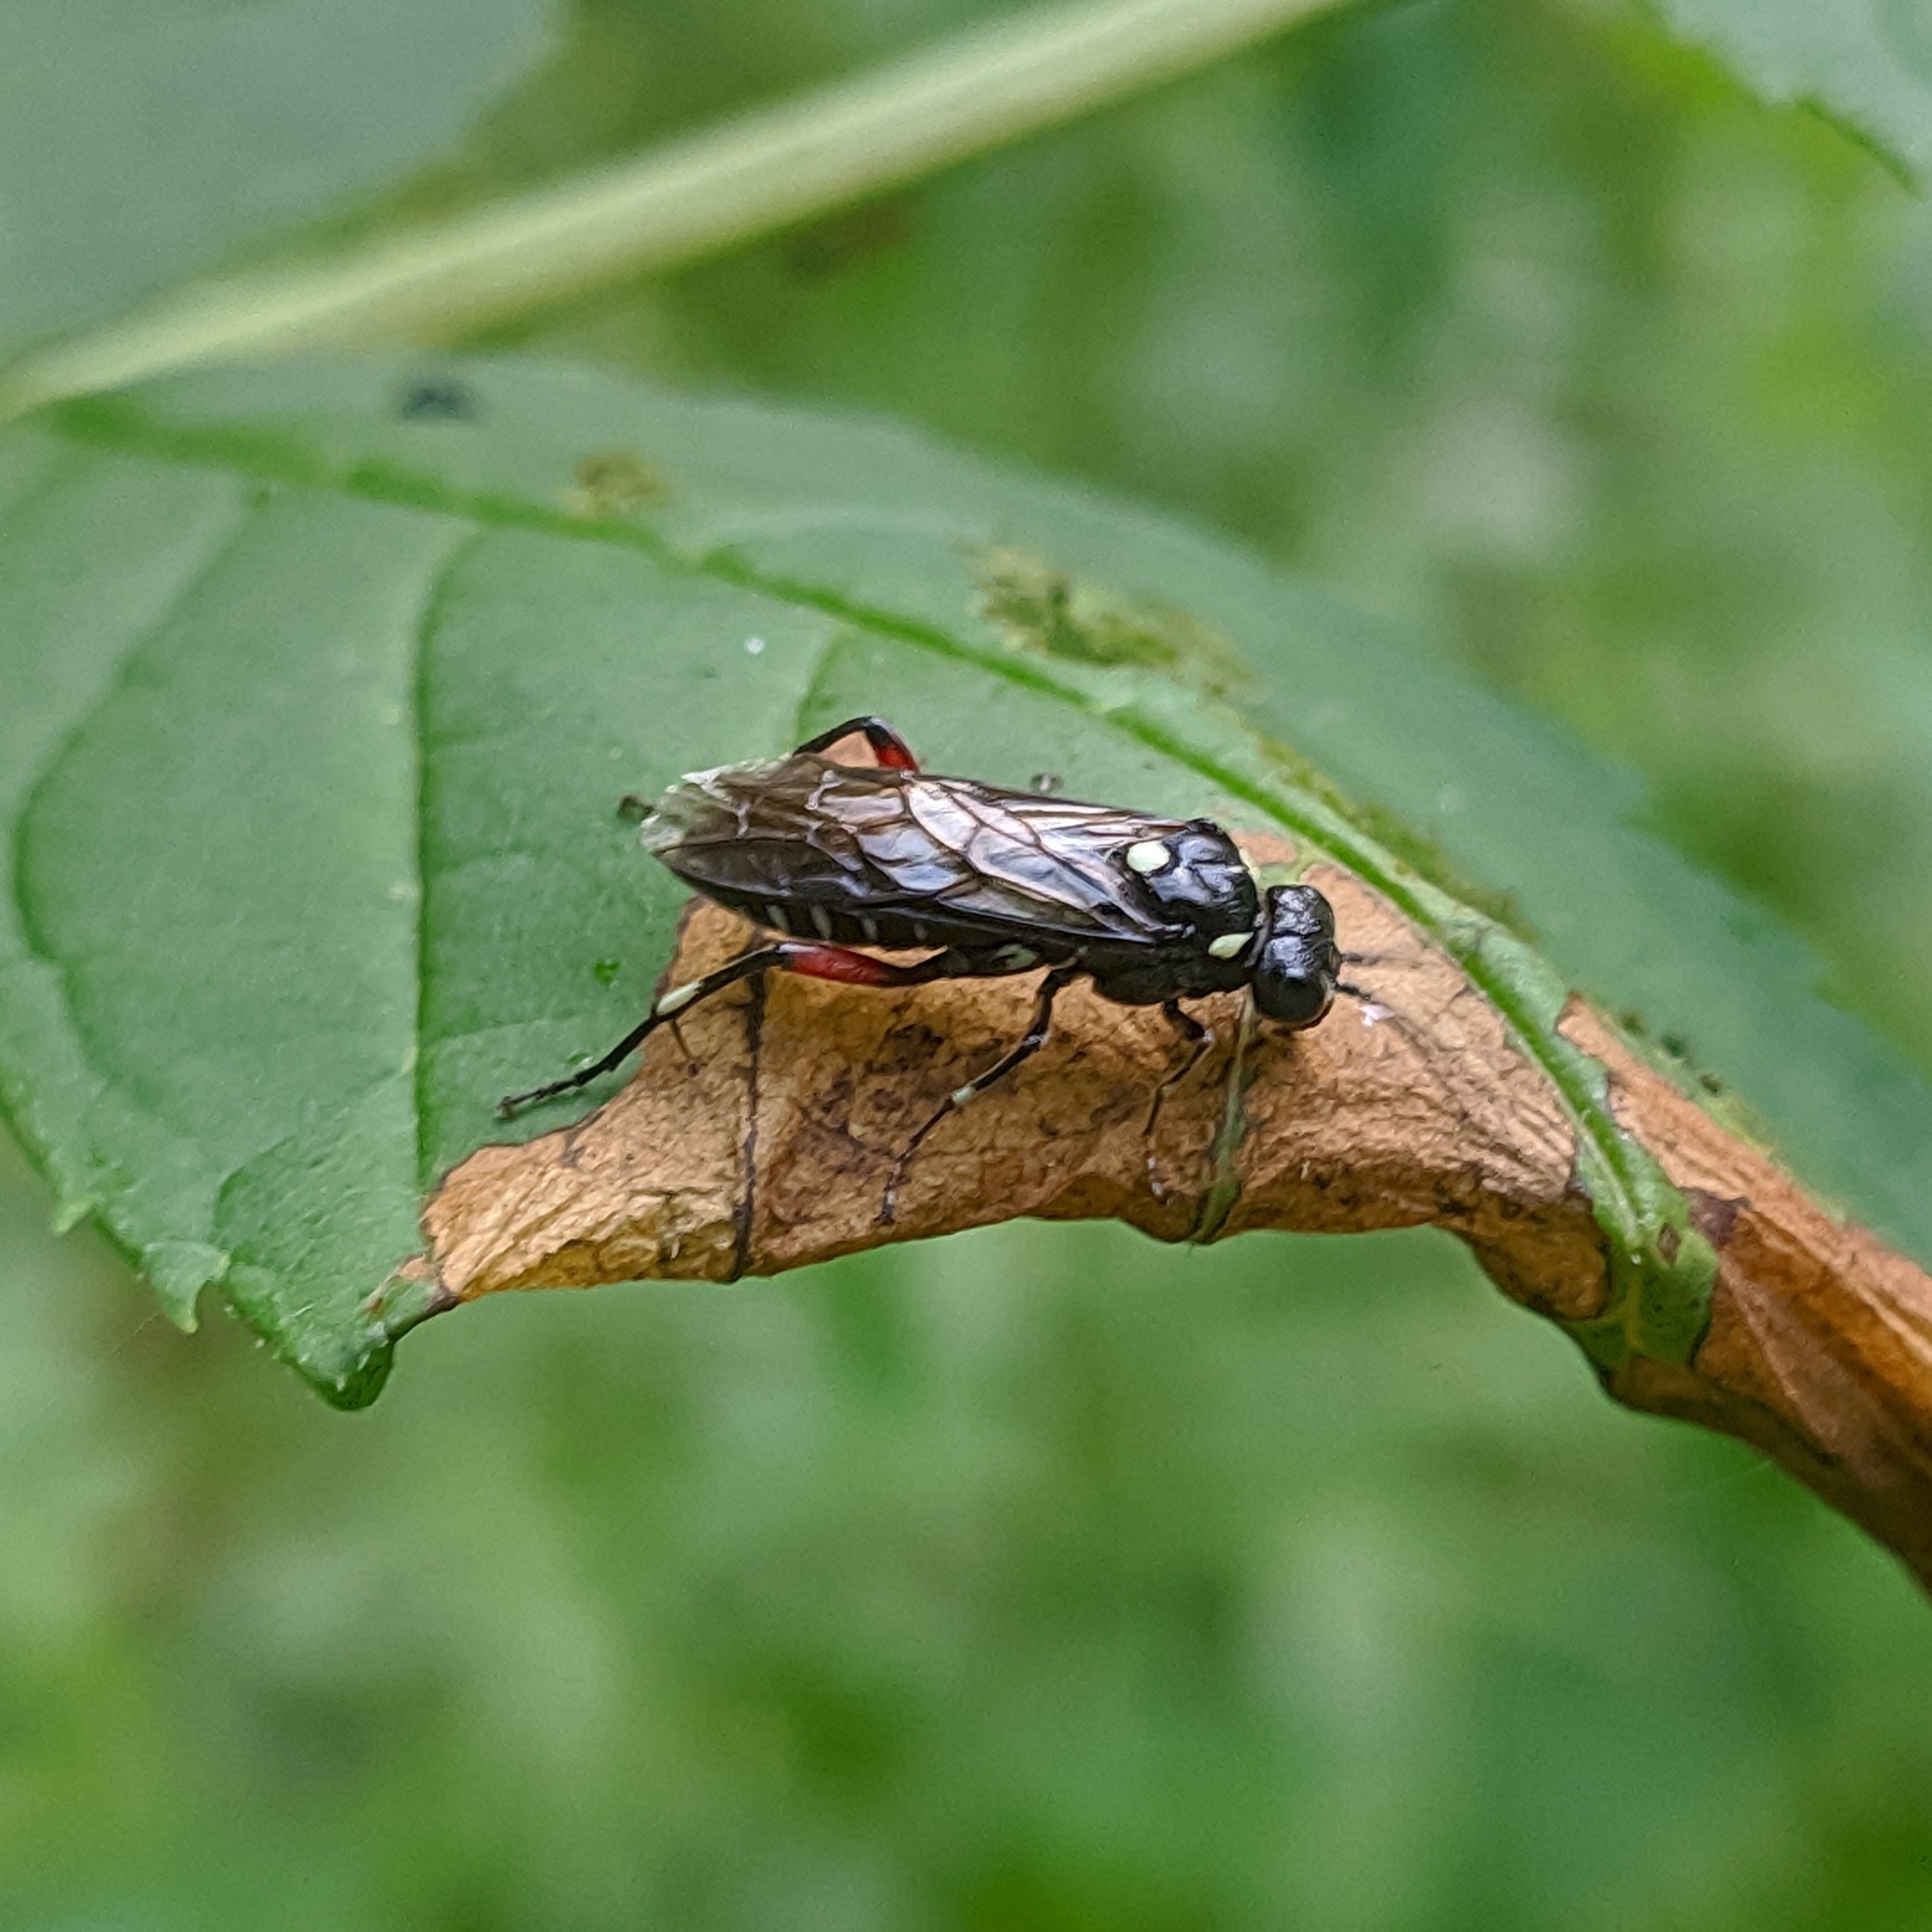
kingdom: Animalia
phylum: Arthropoda
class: Insecta
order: Hymenoptera
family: Tenthredinidae
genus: Macrophya
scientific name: Macrophya punctumalbum
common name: Sawfly
